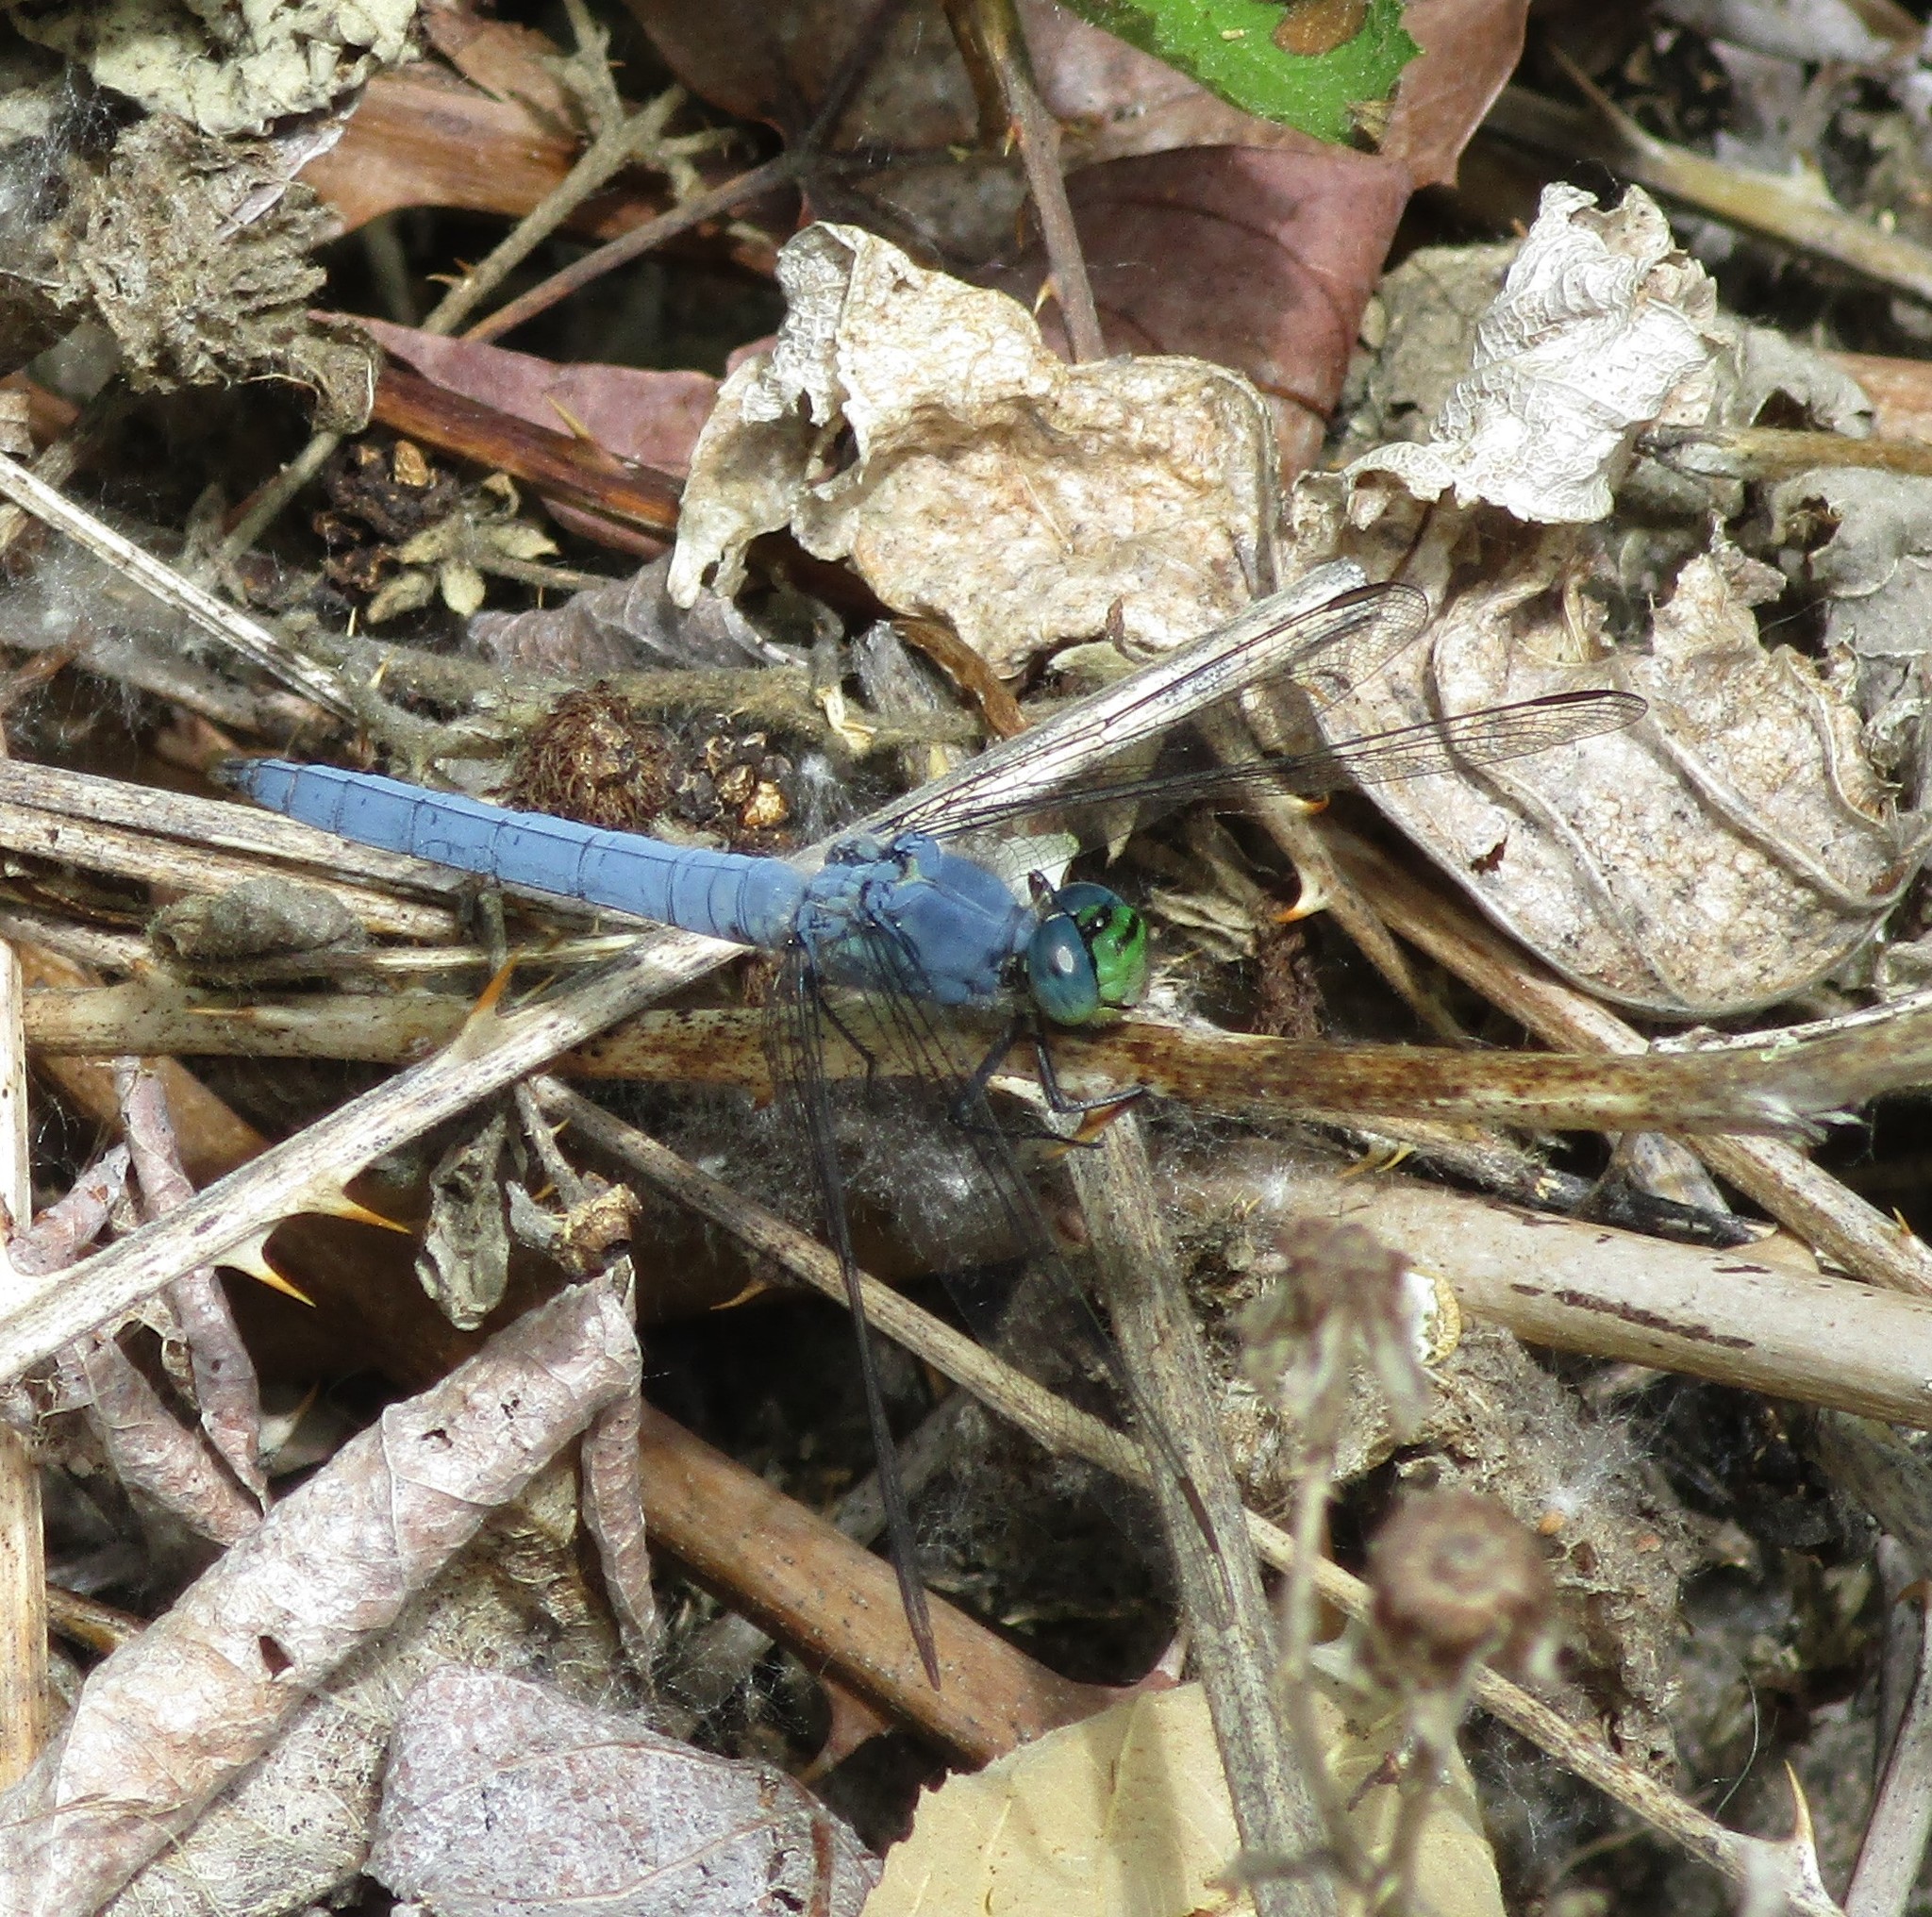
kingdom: Animalia
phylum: Arthropoda
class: Insecta
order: Odonata
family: Libellulidae
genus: Erythemis
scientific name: Erythemis collocata
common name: Western pondhawk
